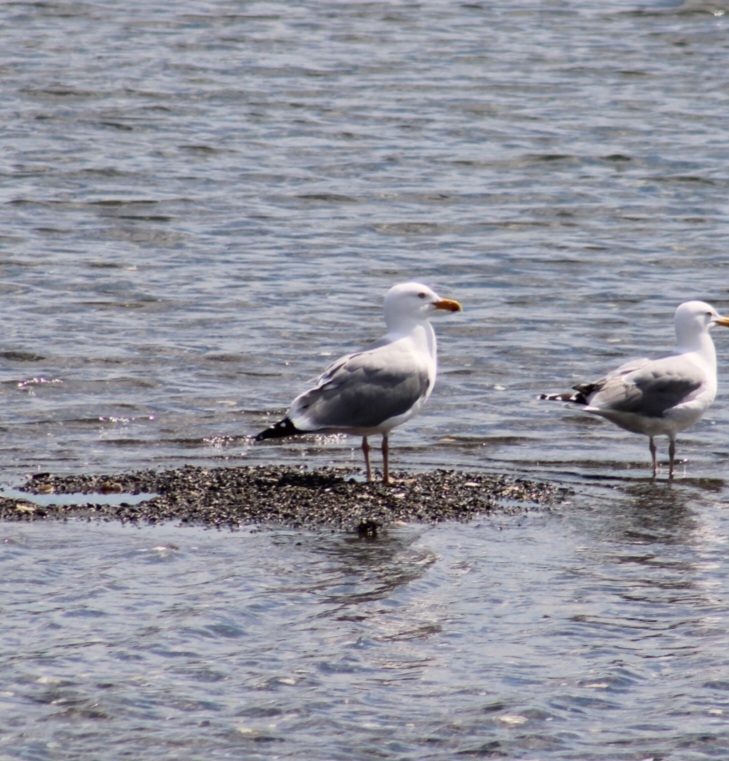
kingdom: Animalia
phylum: Chordata
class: Aves
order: Charadriiformes
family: Laridae
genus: Larus
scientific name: Larus argentatus
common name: Herring gull
